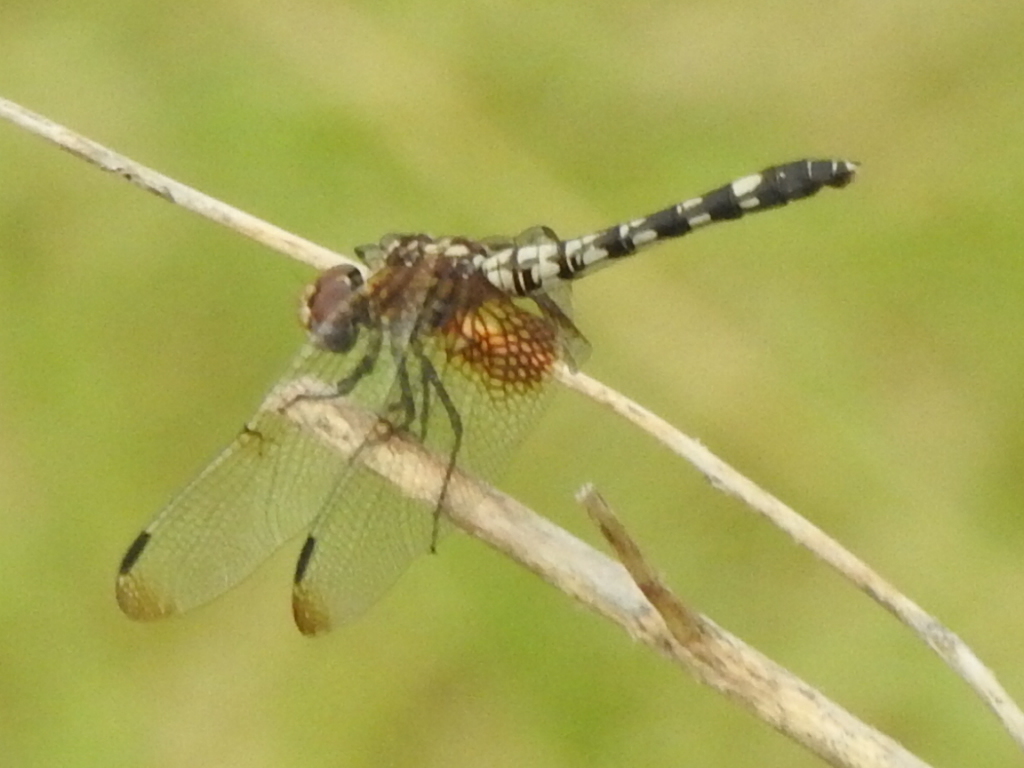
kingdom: Animalia
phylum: Arthropoda
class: Insecta
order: Odonata
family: Libellulidae
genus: Dythemis
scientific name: Dythemis fugax
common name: Checkered setwing
